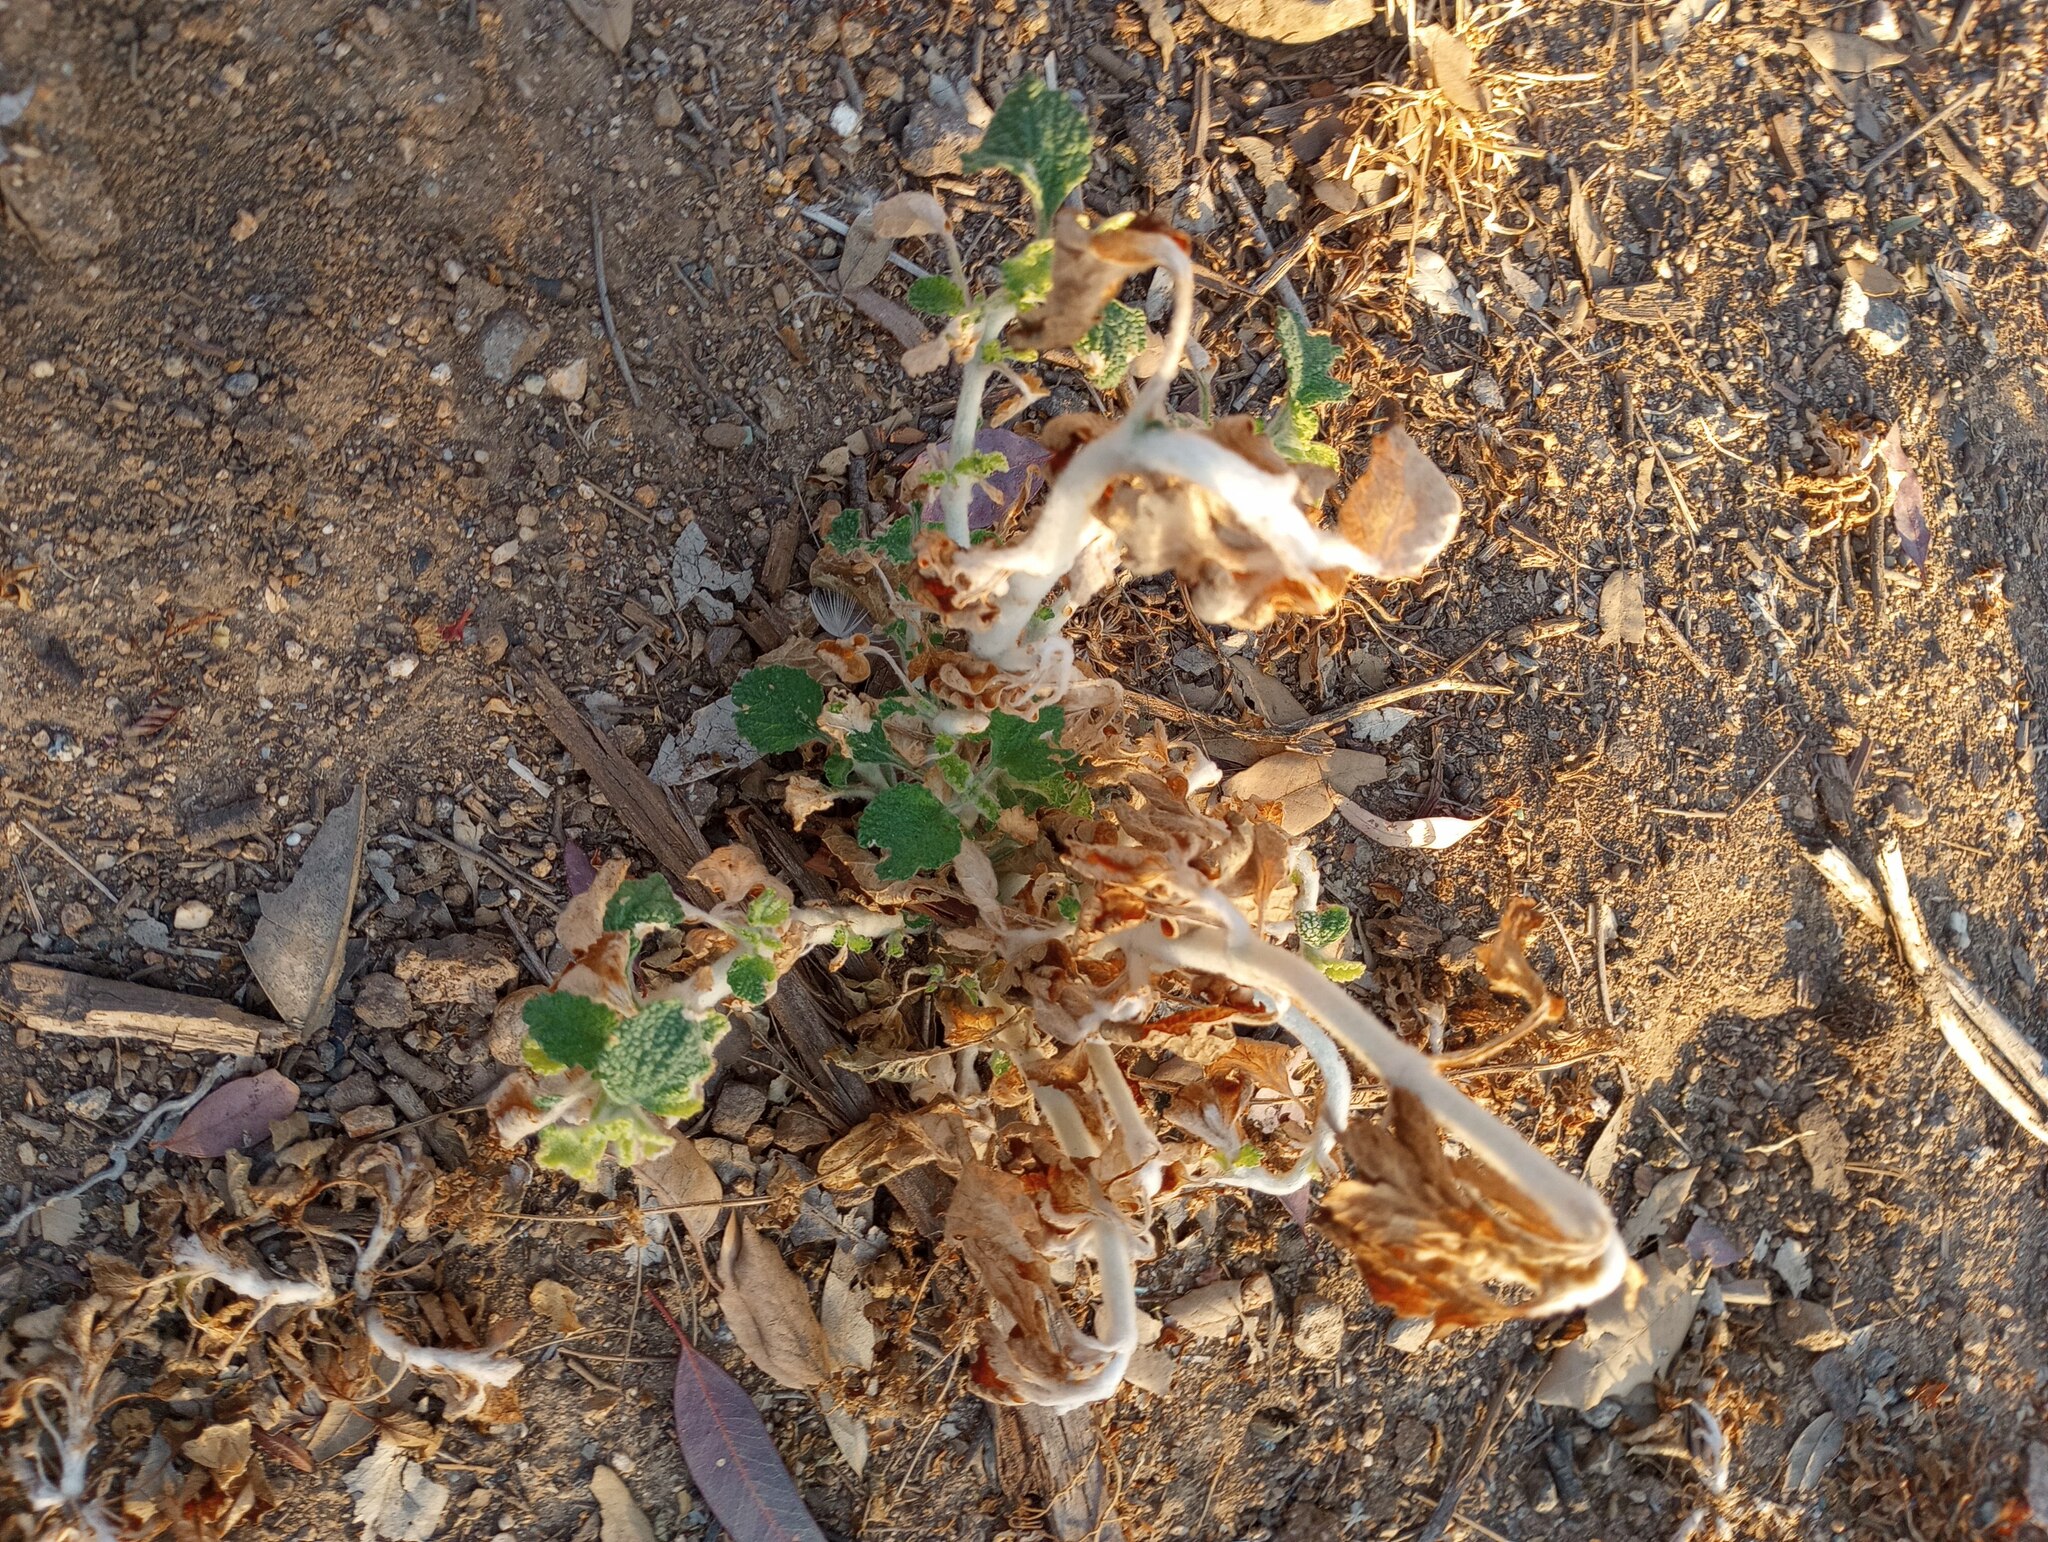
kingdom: Plantae
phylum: Tracheophyta
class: Magnoliopsida
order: Lamiales
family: Lamiaceae
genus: Marrubium
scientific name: Marrubium vulgare
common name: Horehound
